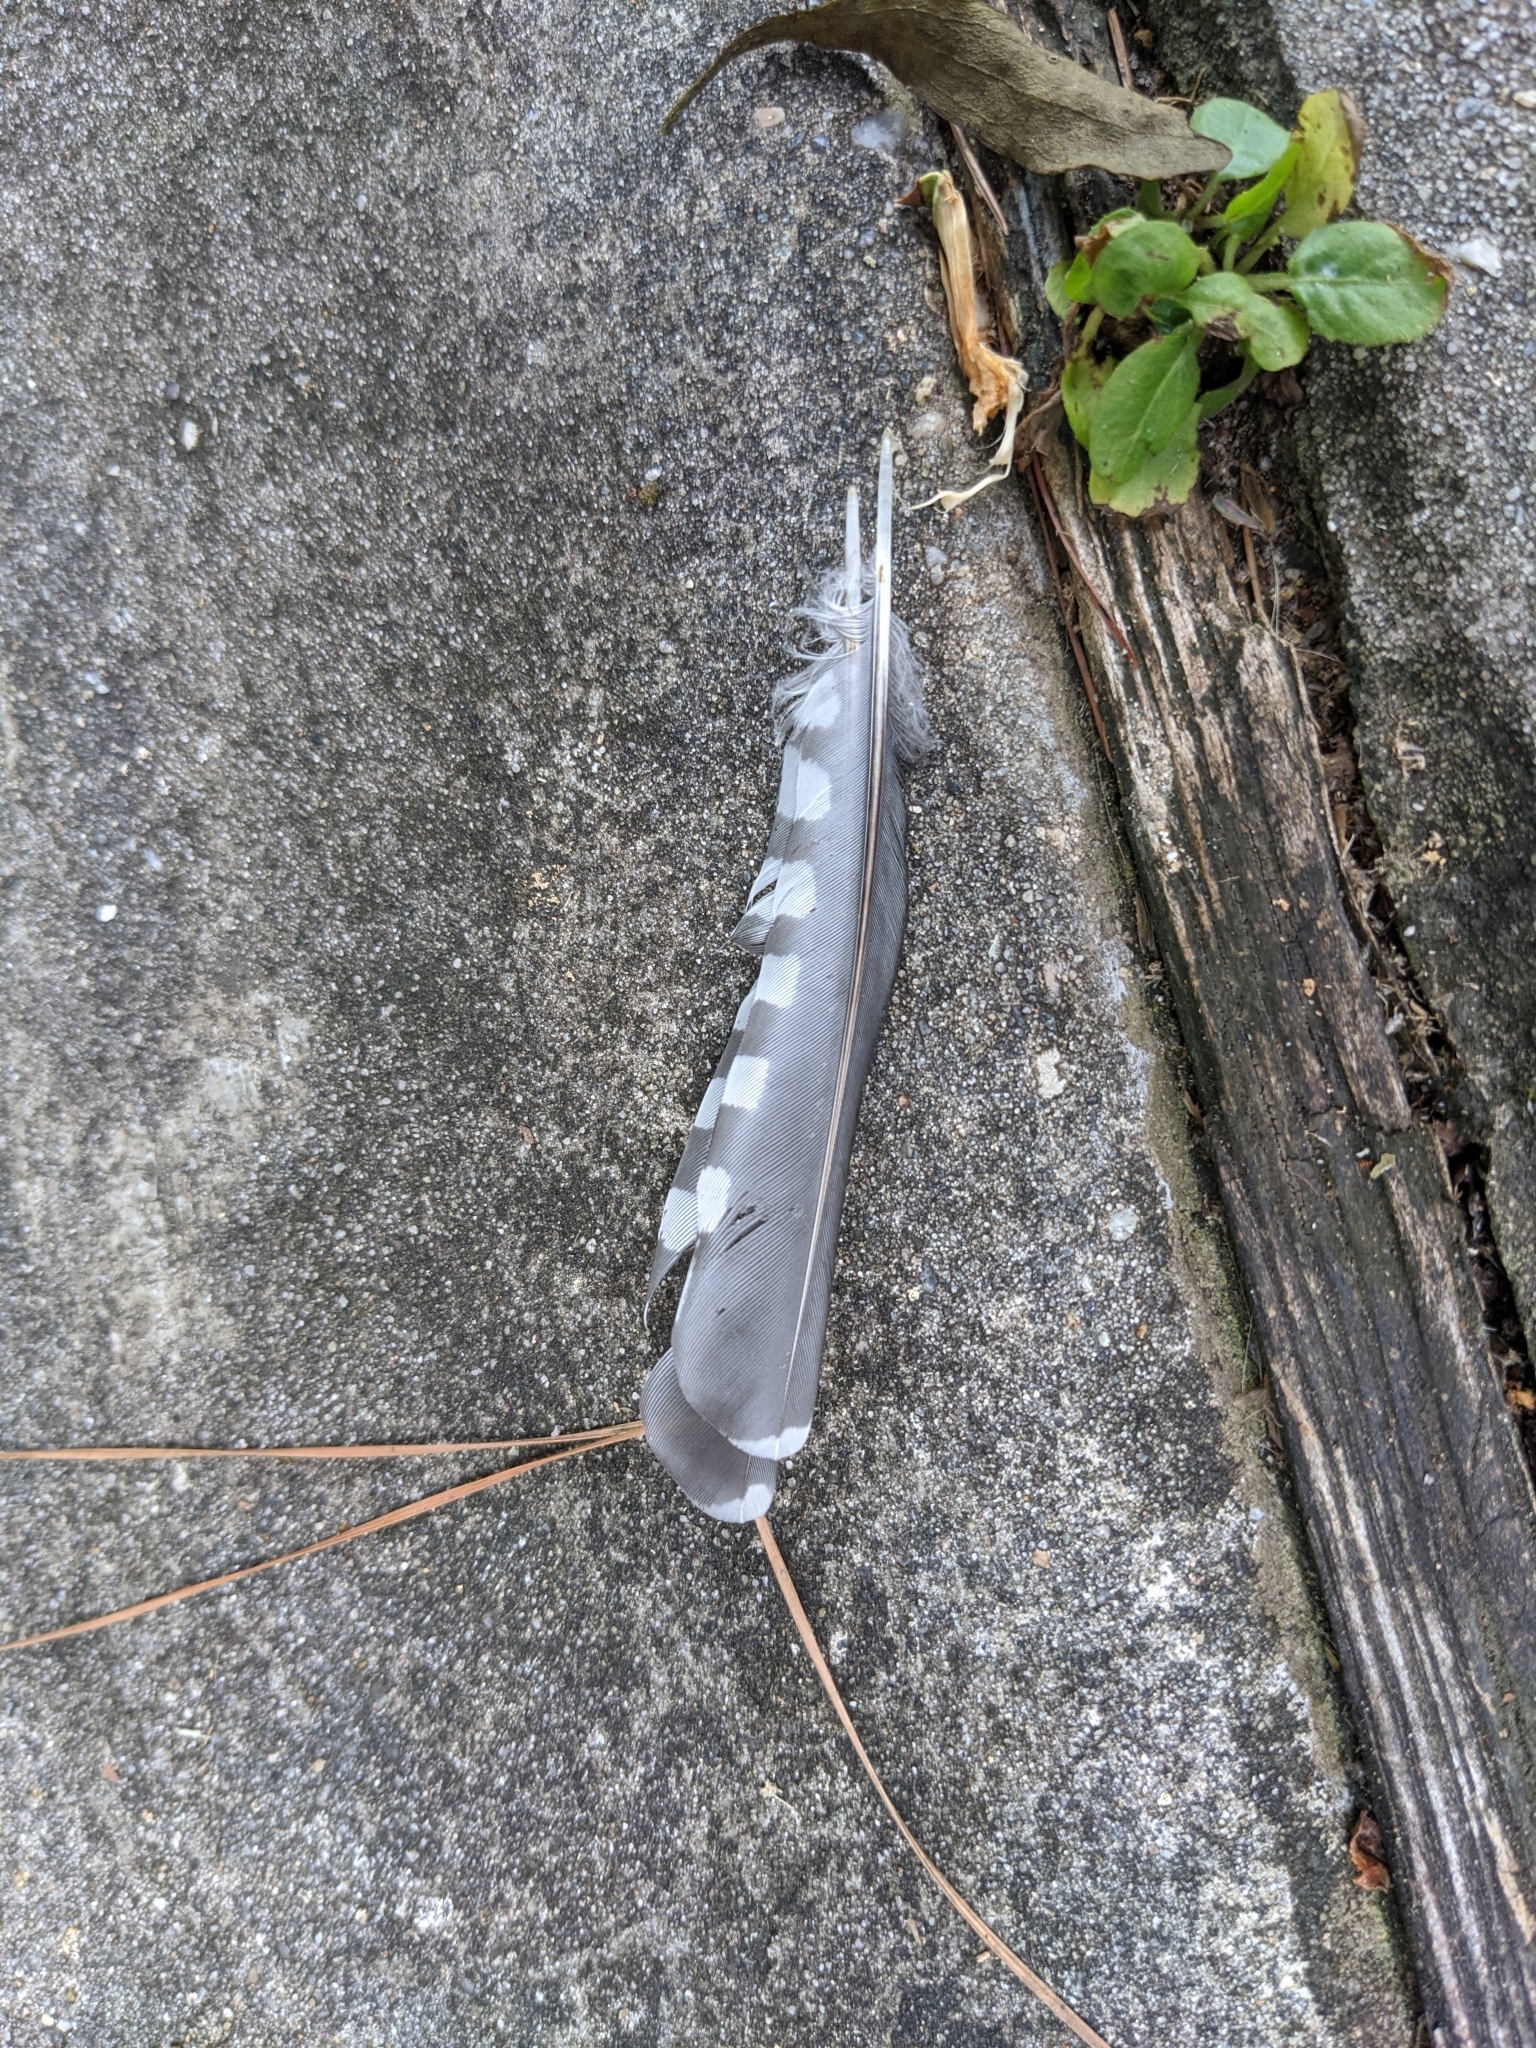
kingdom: Animalia
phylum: Chordata
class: Aves
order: Piciformes
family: Picidae
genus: Melanerpes
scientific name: Melanerpes carolinus
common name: Red-bellied woodpecker
